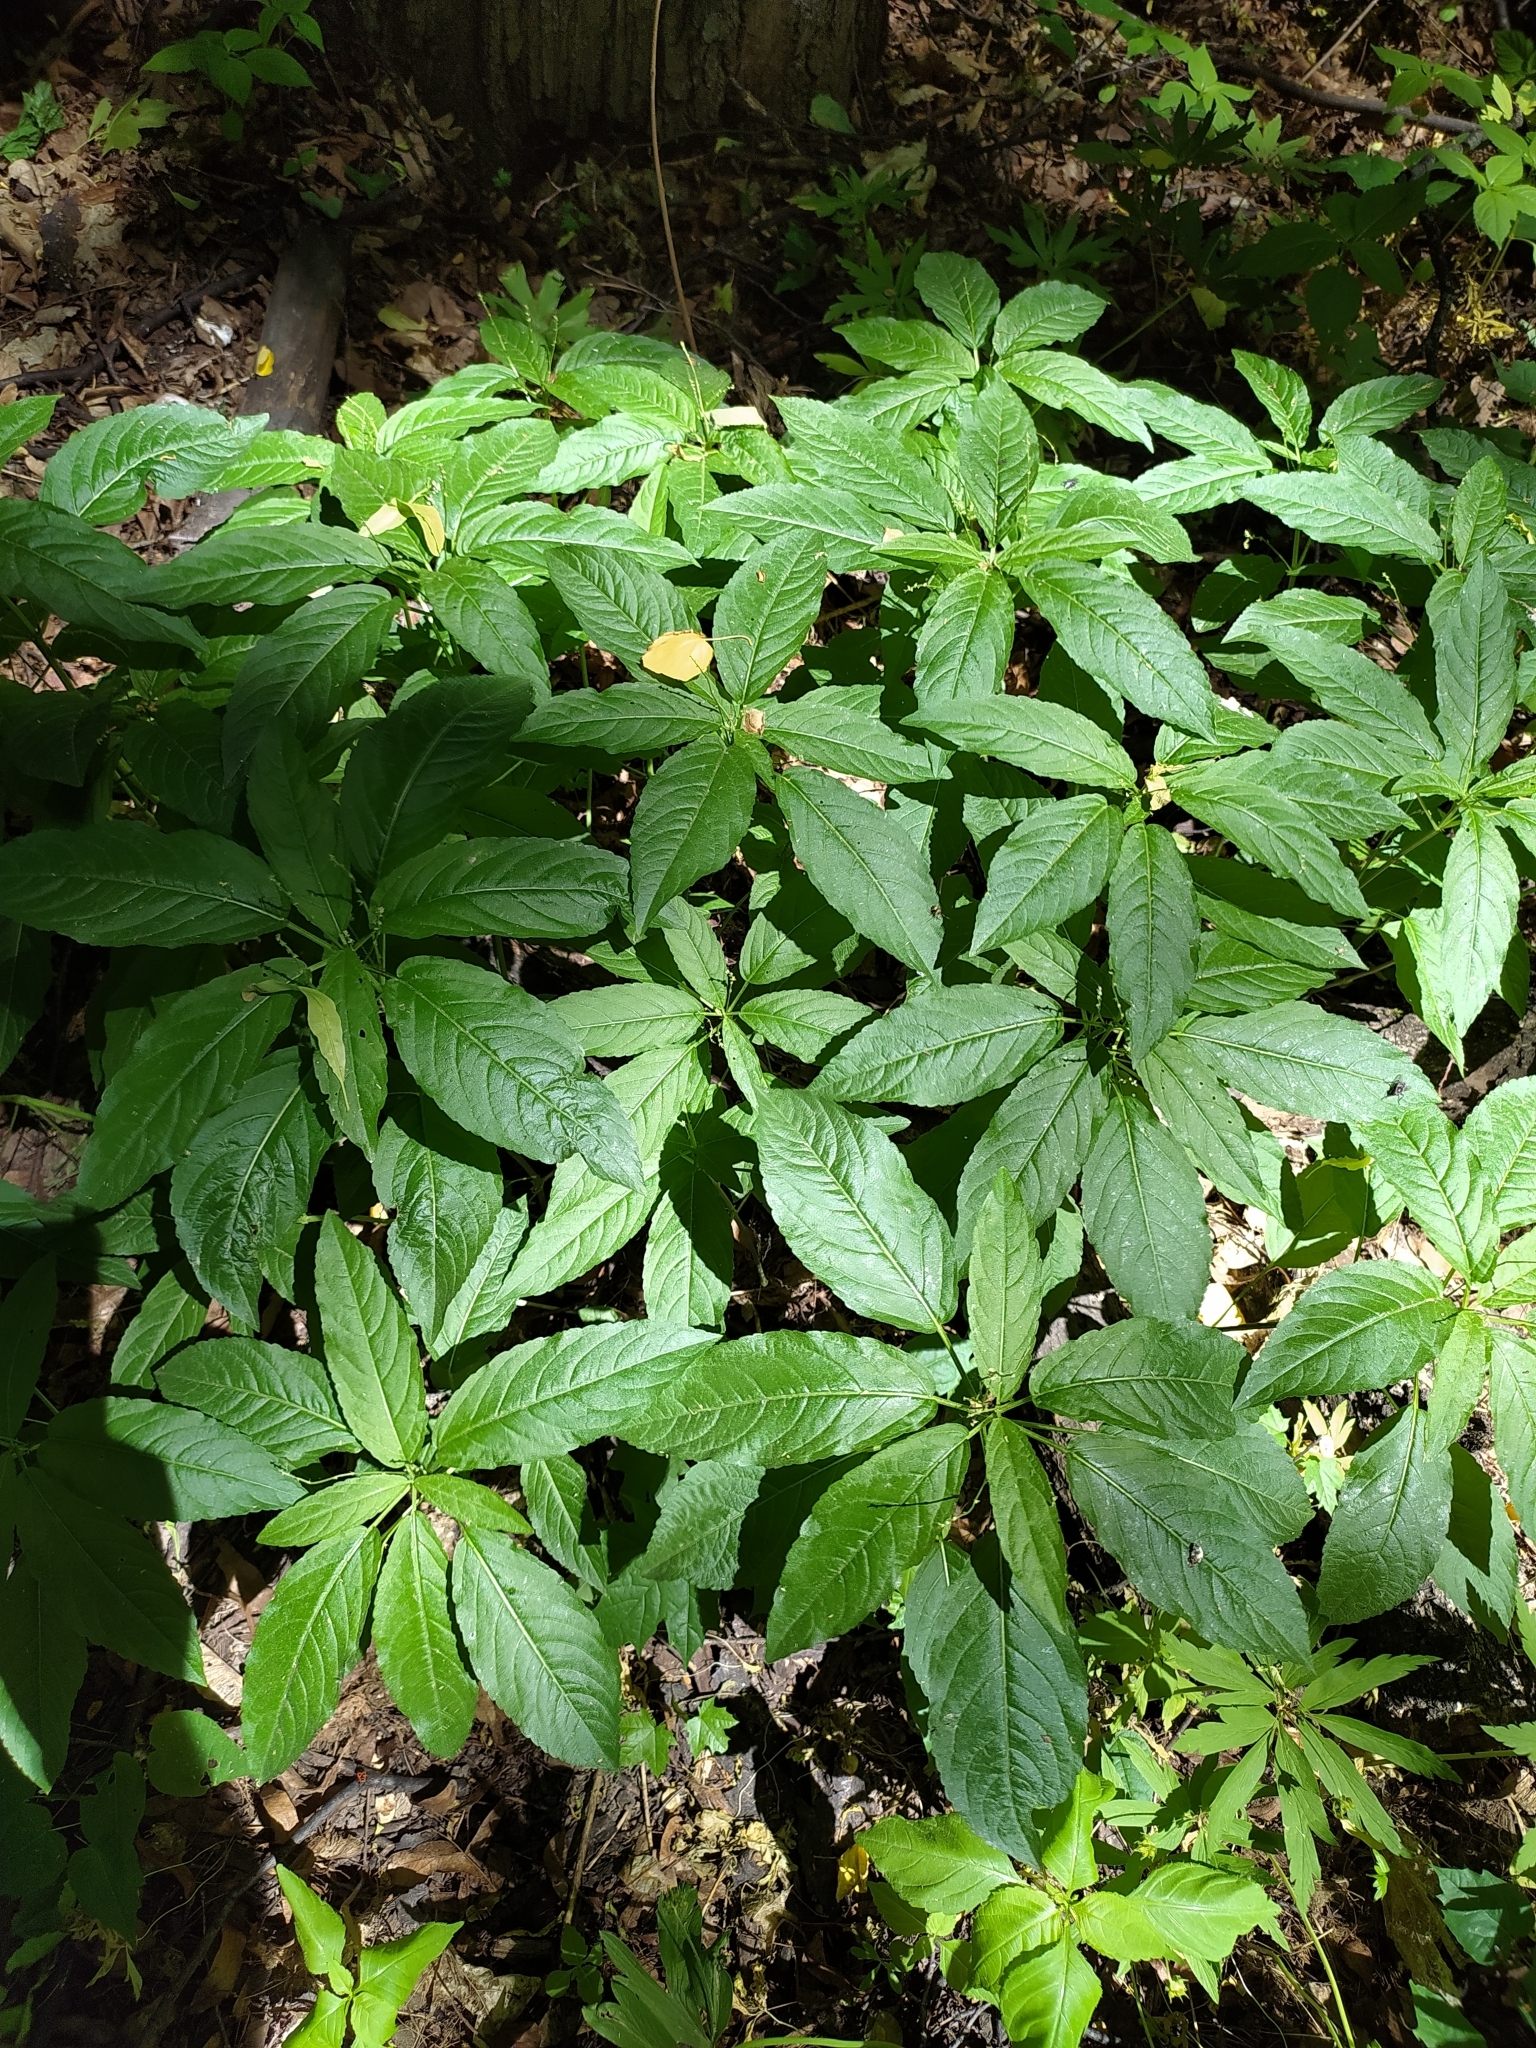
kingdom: Plantae
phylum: Tracheophyta
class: Magnoliopsida
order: Malpighiales
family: Euphorbiaceae
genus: Mercurialis
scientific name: Mercurialis perennis
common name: Dog mercury
